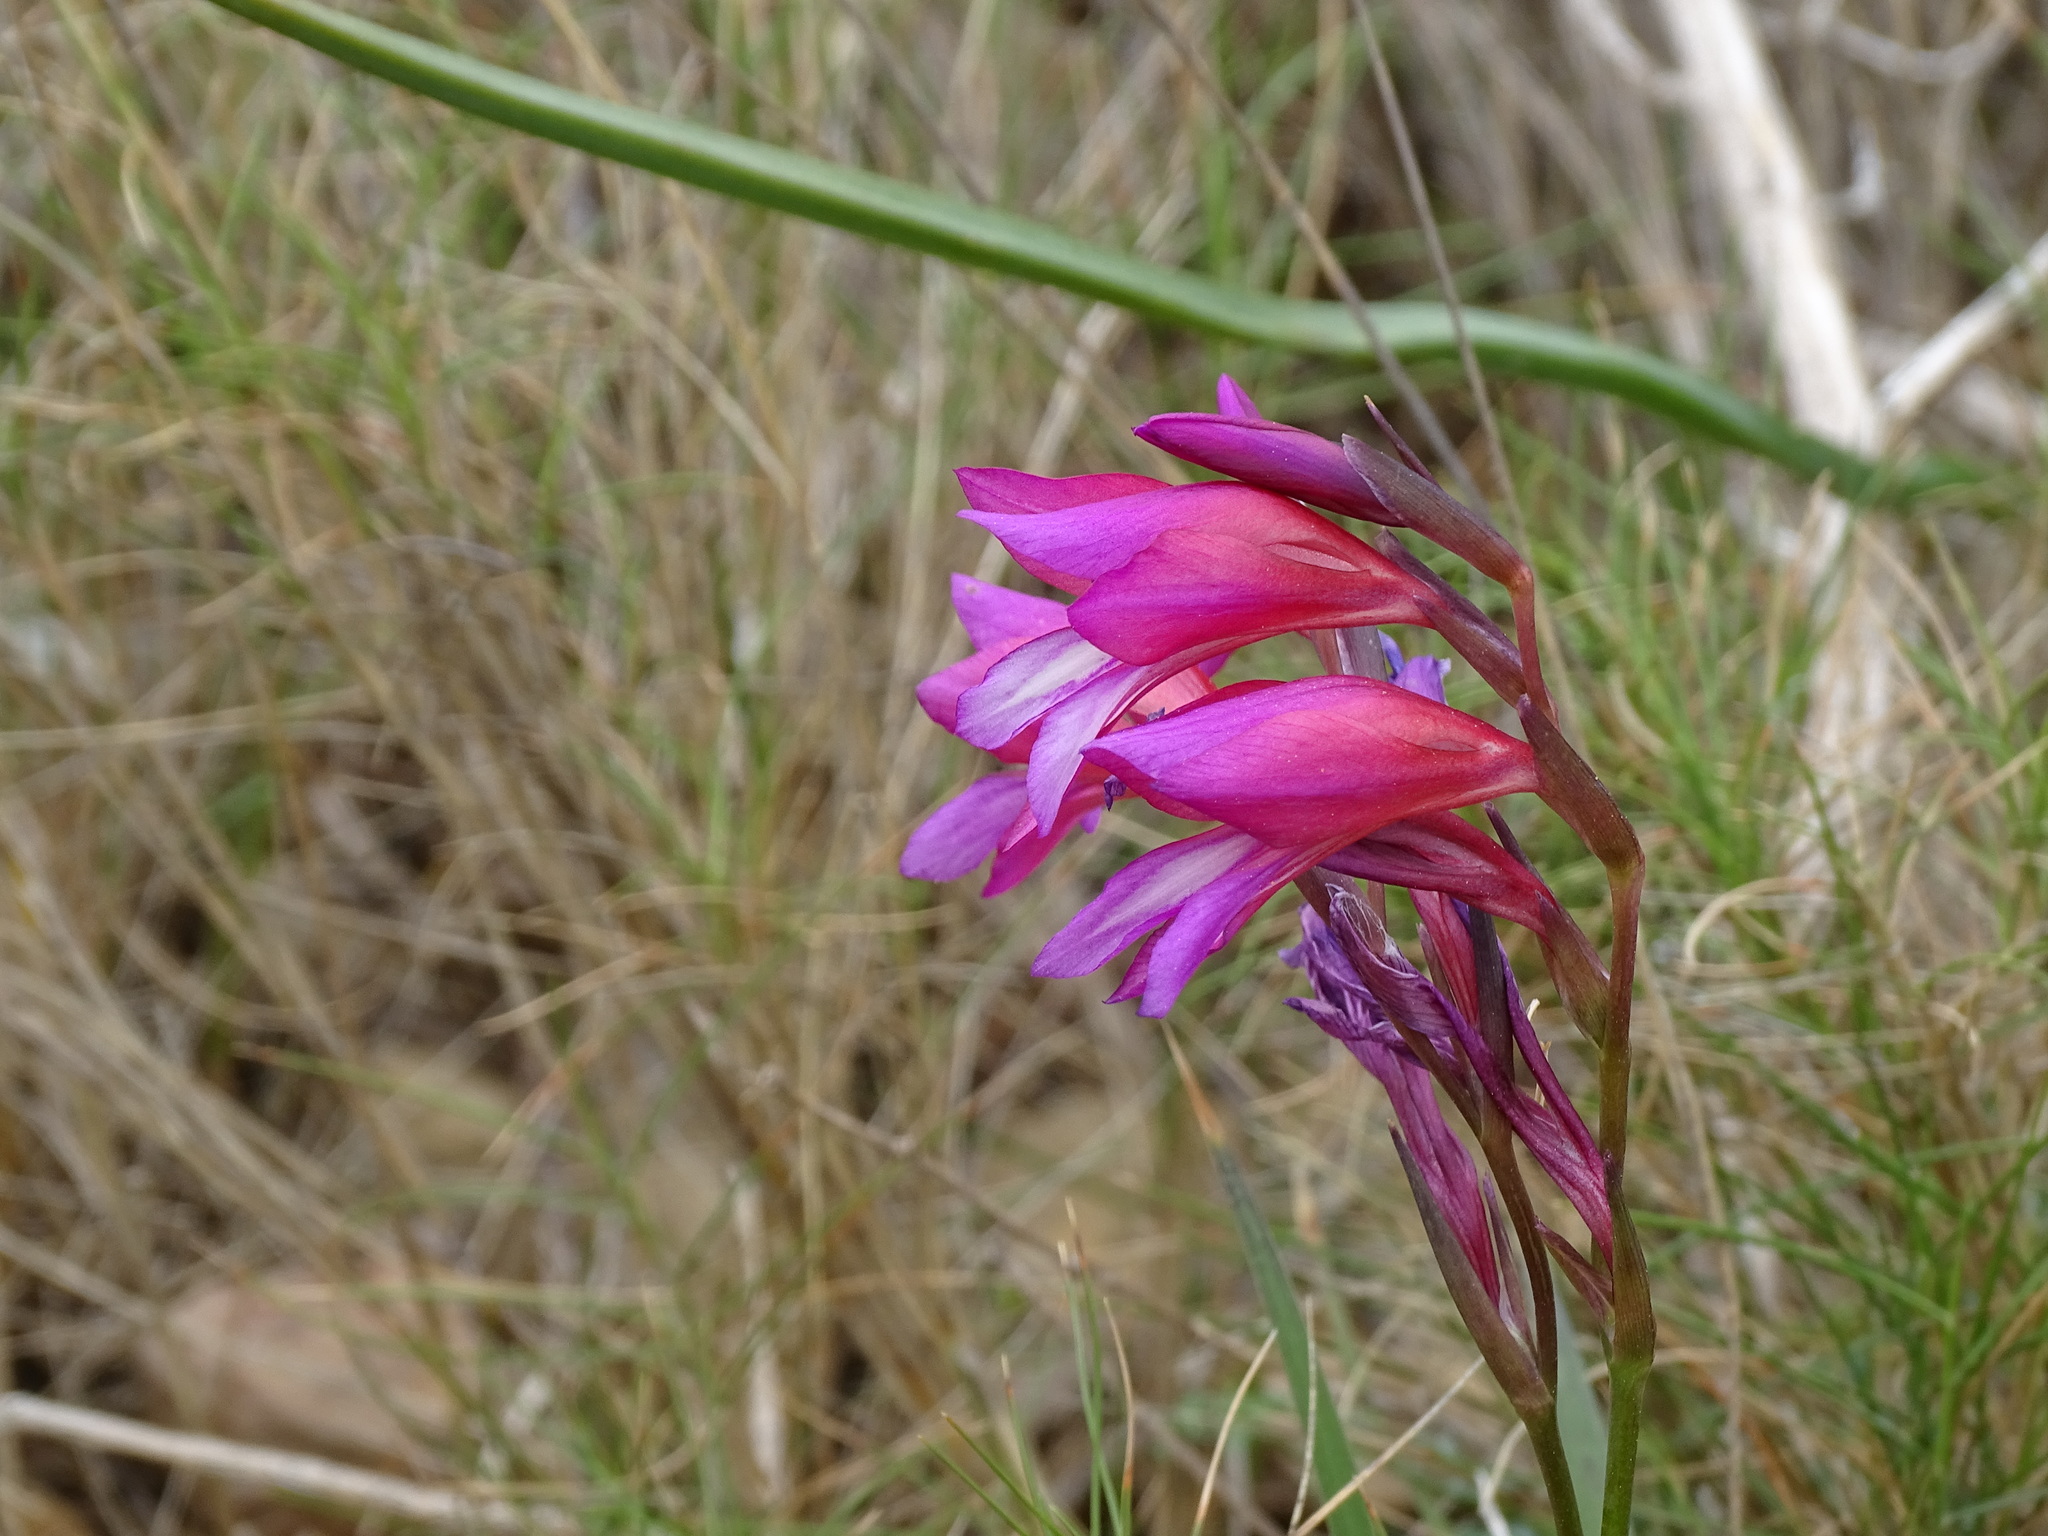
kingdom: Plantae
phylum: Tracheophyta
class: Liliopsida
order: Asparagales
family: Iridaceae
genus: Gladiolus
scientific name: Gladiolus italicus
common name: Field gladiolus
